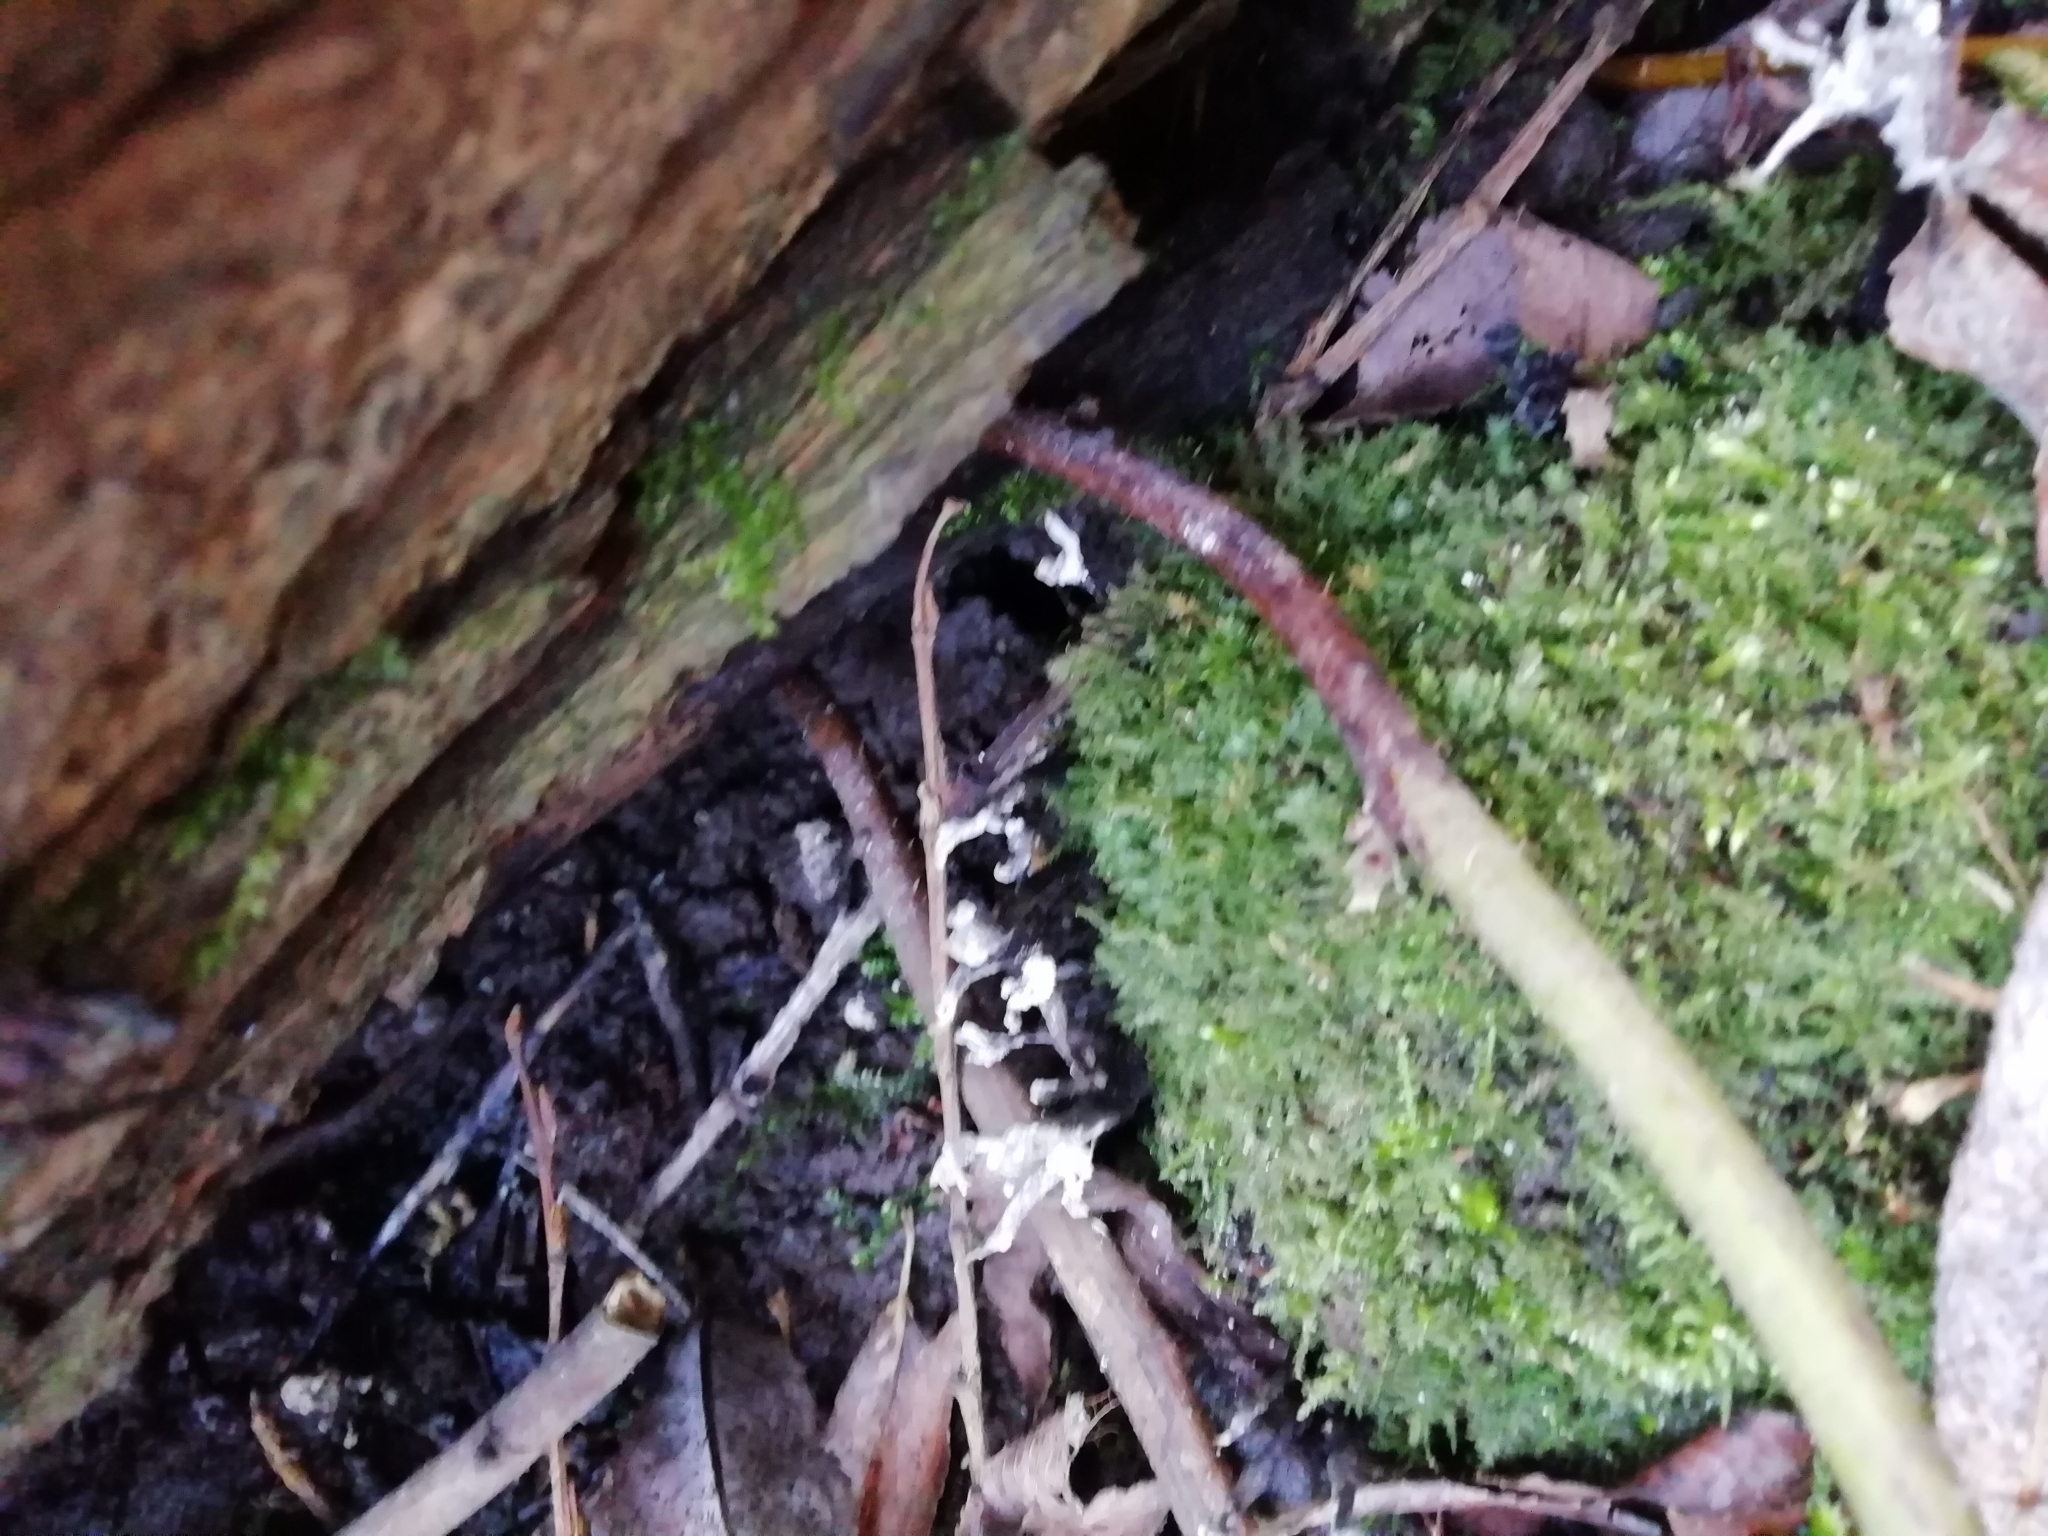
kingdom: Fungi
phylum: Ascomycota
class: Sordariomycetes
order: Xylariales
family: Xylariaceae
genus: Xylaria
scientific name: Xylaria hypoxylon
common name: Candle-snuff fungus
